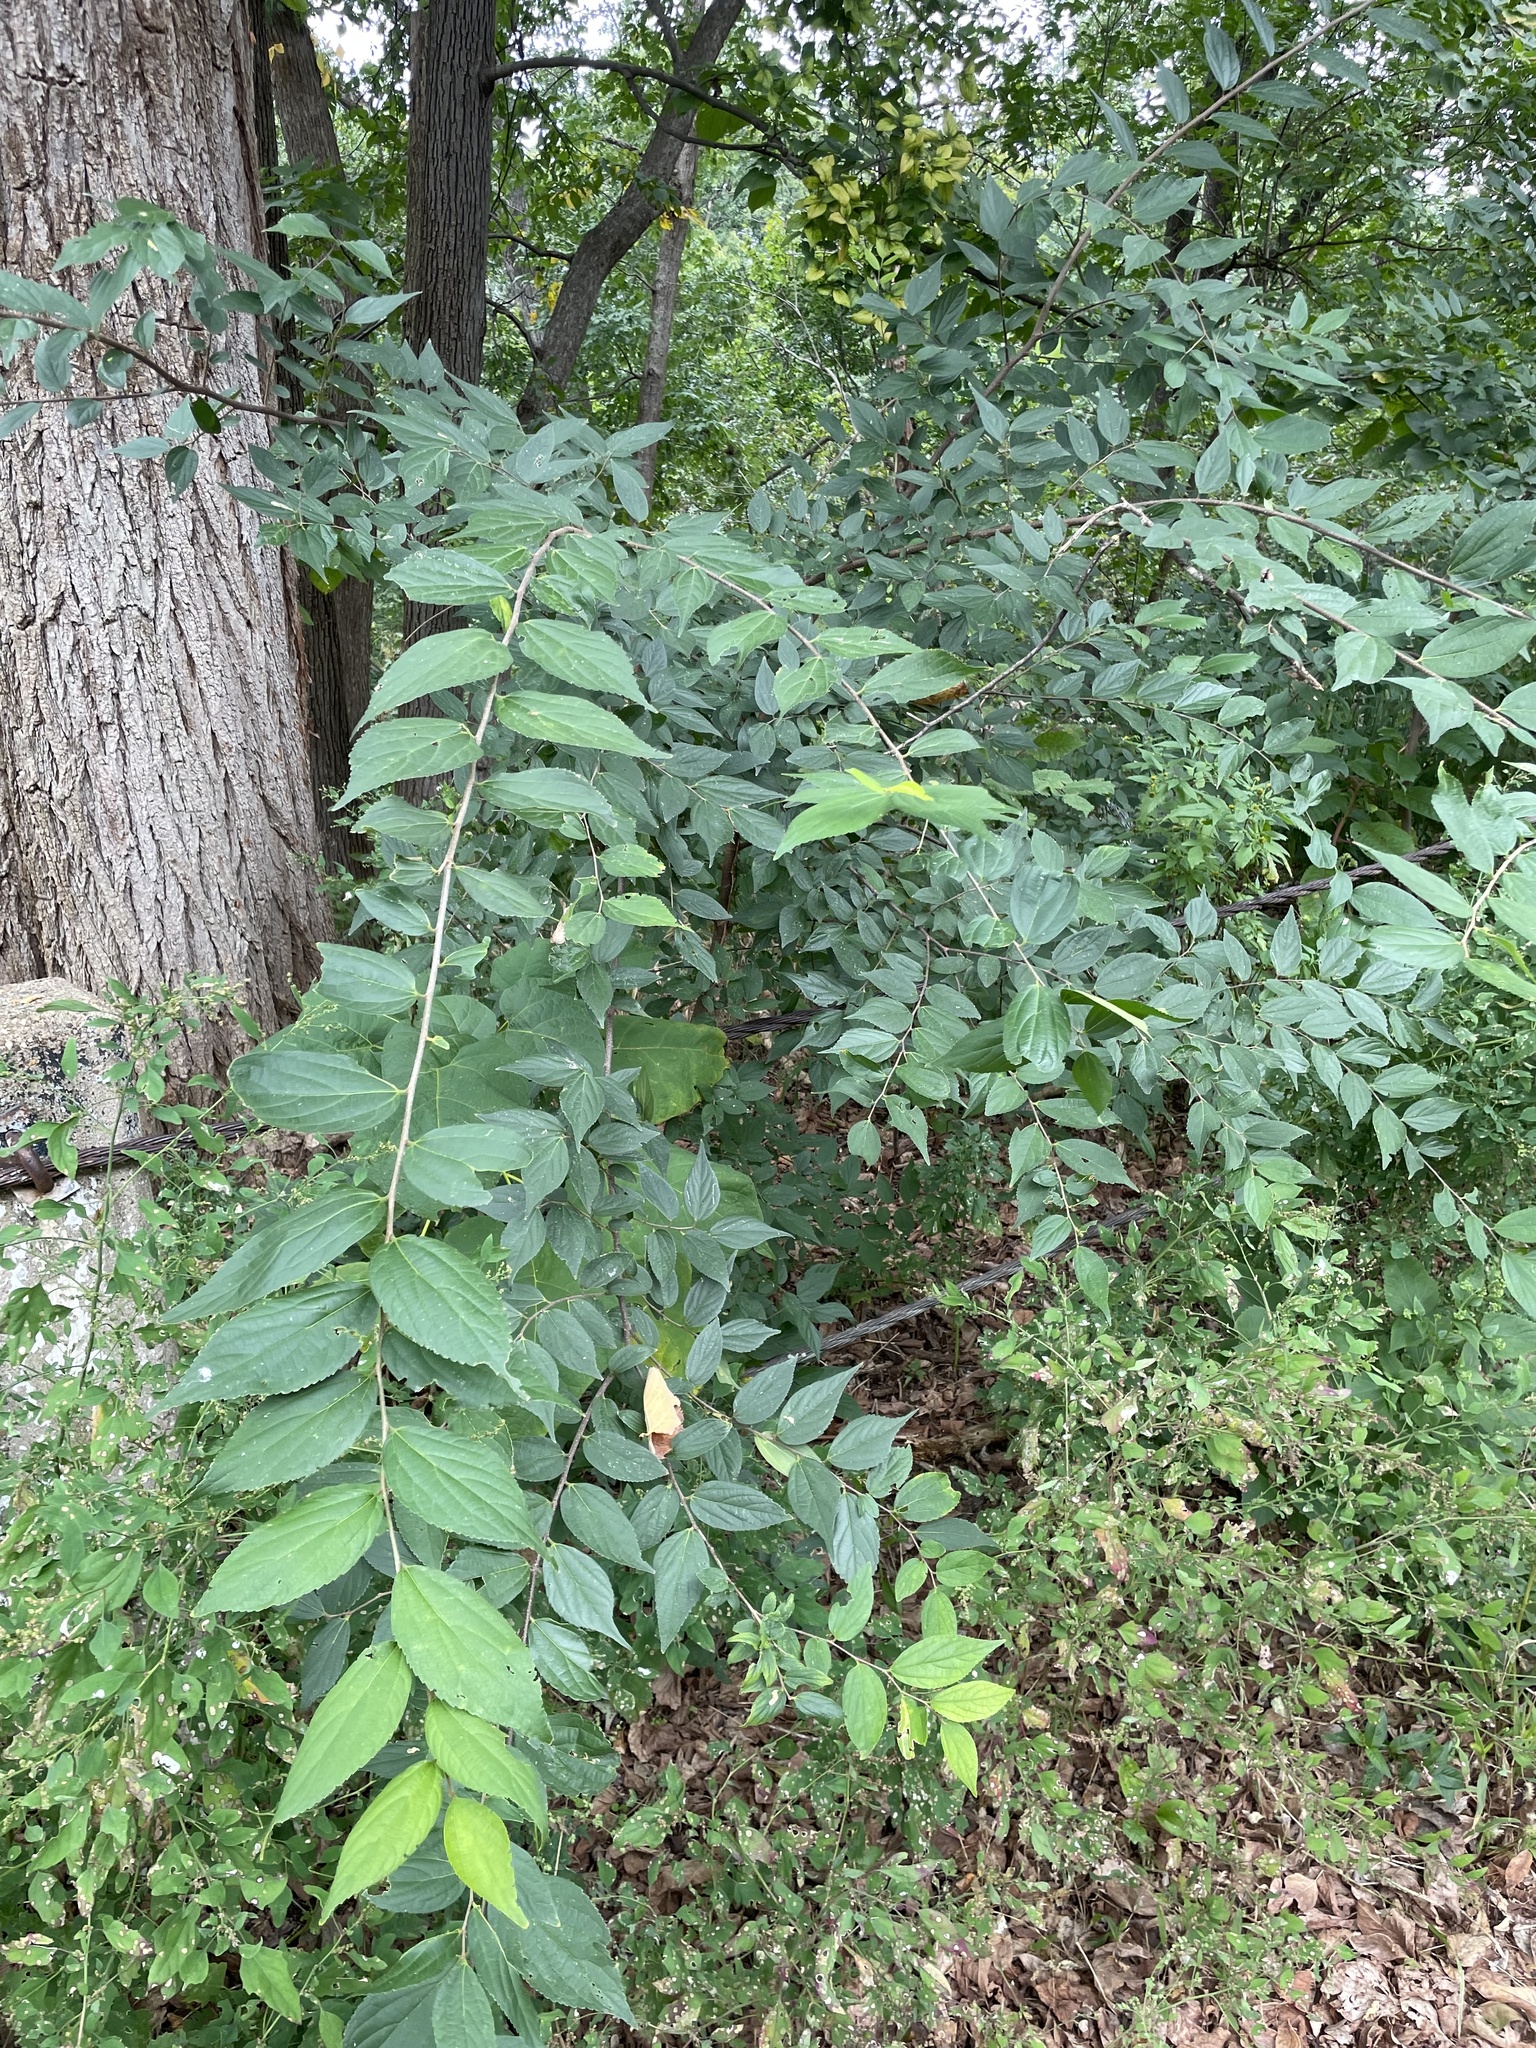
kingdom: Plantae
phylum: Tracheophyta
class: Magnoliopsida
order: Rosales
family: Cannabaceae
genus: Celtis
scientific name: Celtis sinensis
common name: Chinese hackberry
